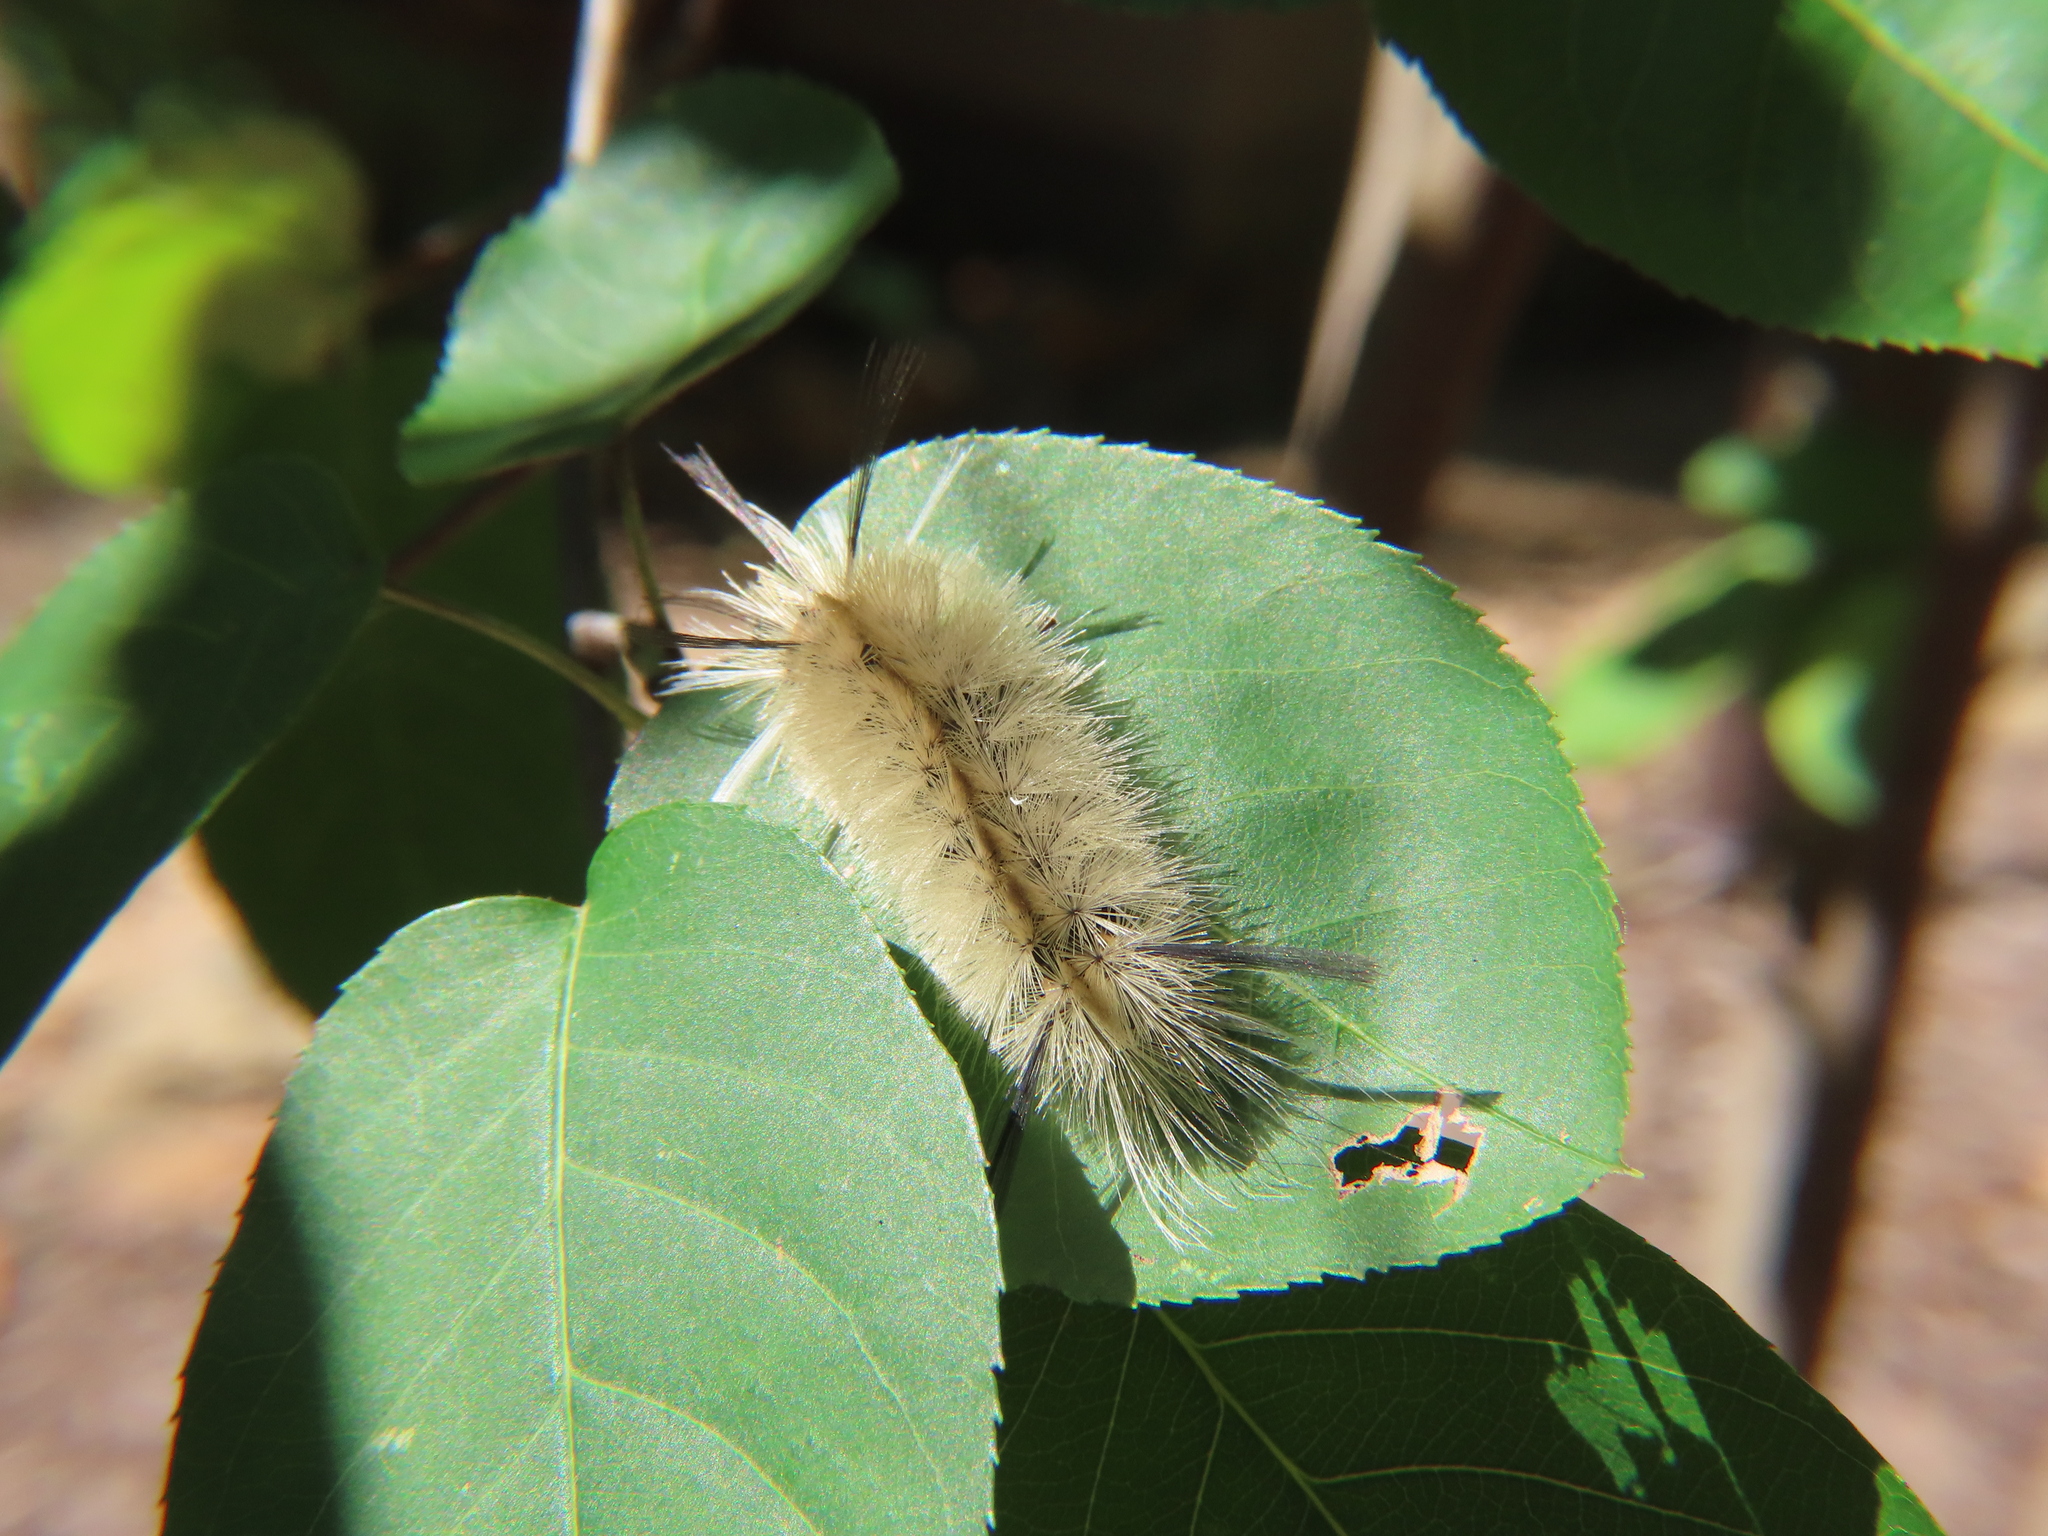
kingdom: Animalia
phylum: Arthropoda
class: Insecta
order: Lepidoptera
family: Erebidae
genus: Halysidota
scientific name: Halysidota tessellaris
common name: Banded tussock moth
